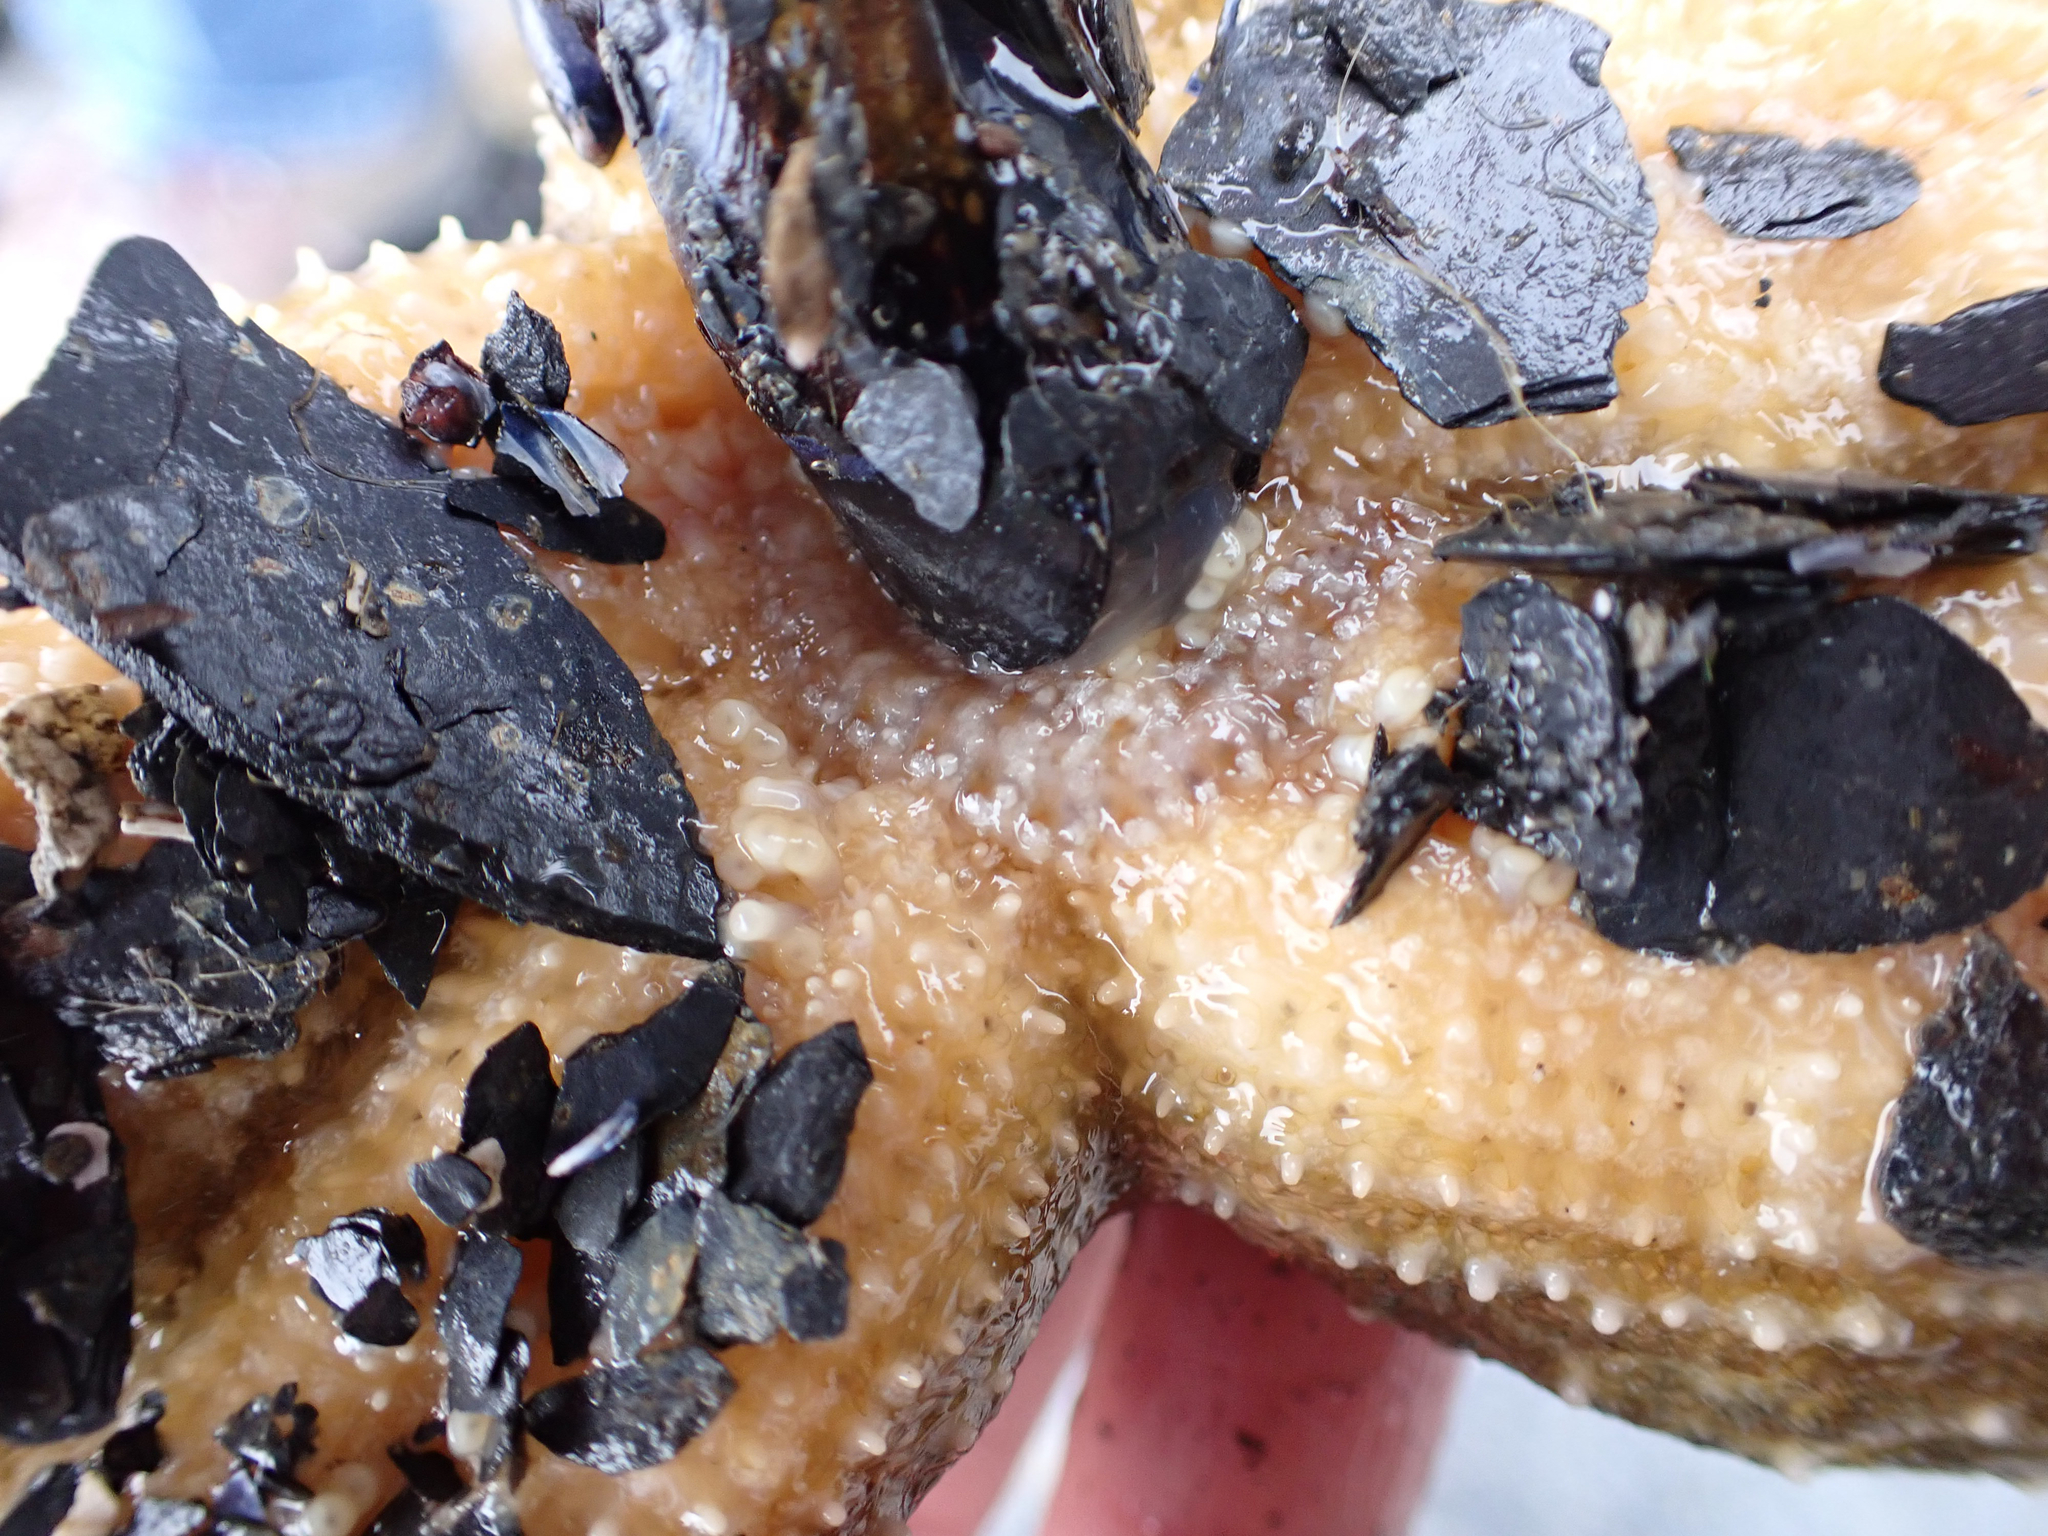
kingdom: Animalia
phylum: Annelida
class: Polychaeta
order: Phyllodocida
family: Polynoidae
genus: Arctonoe
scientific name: Arctonoe fragilis
